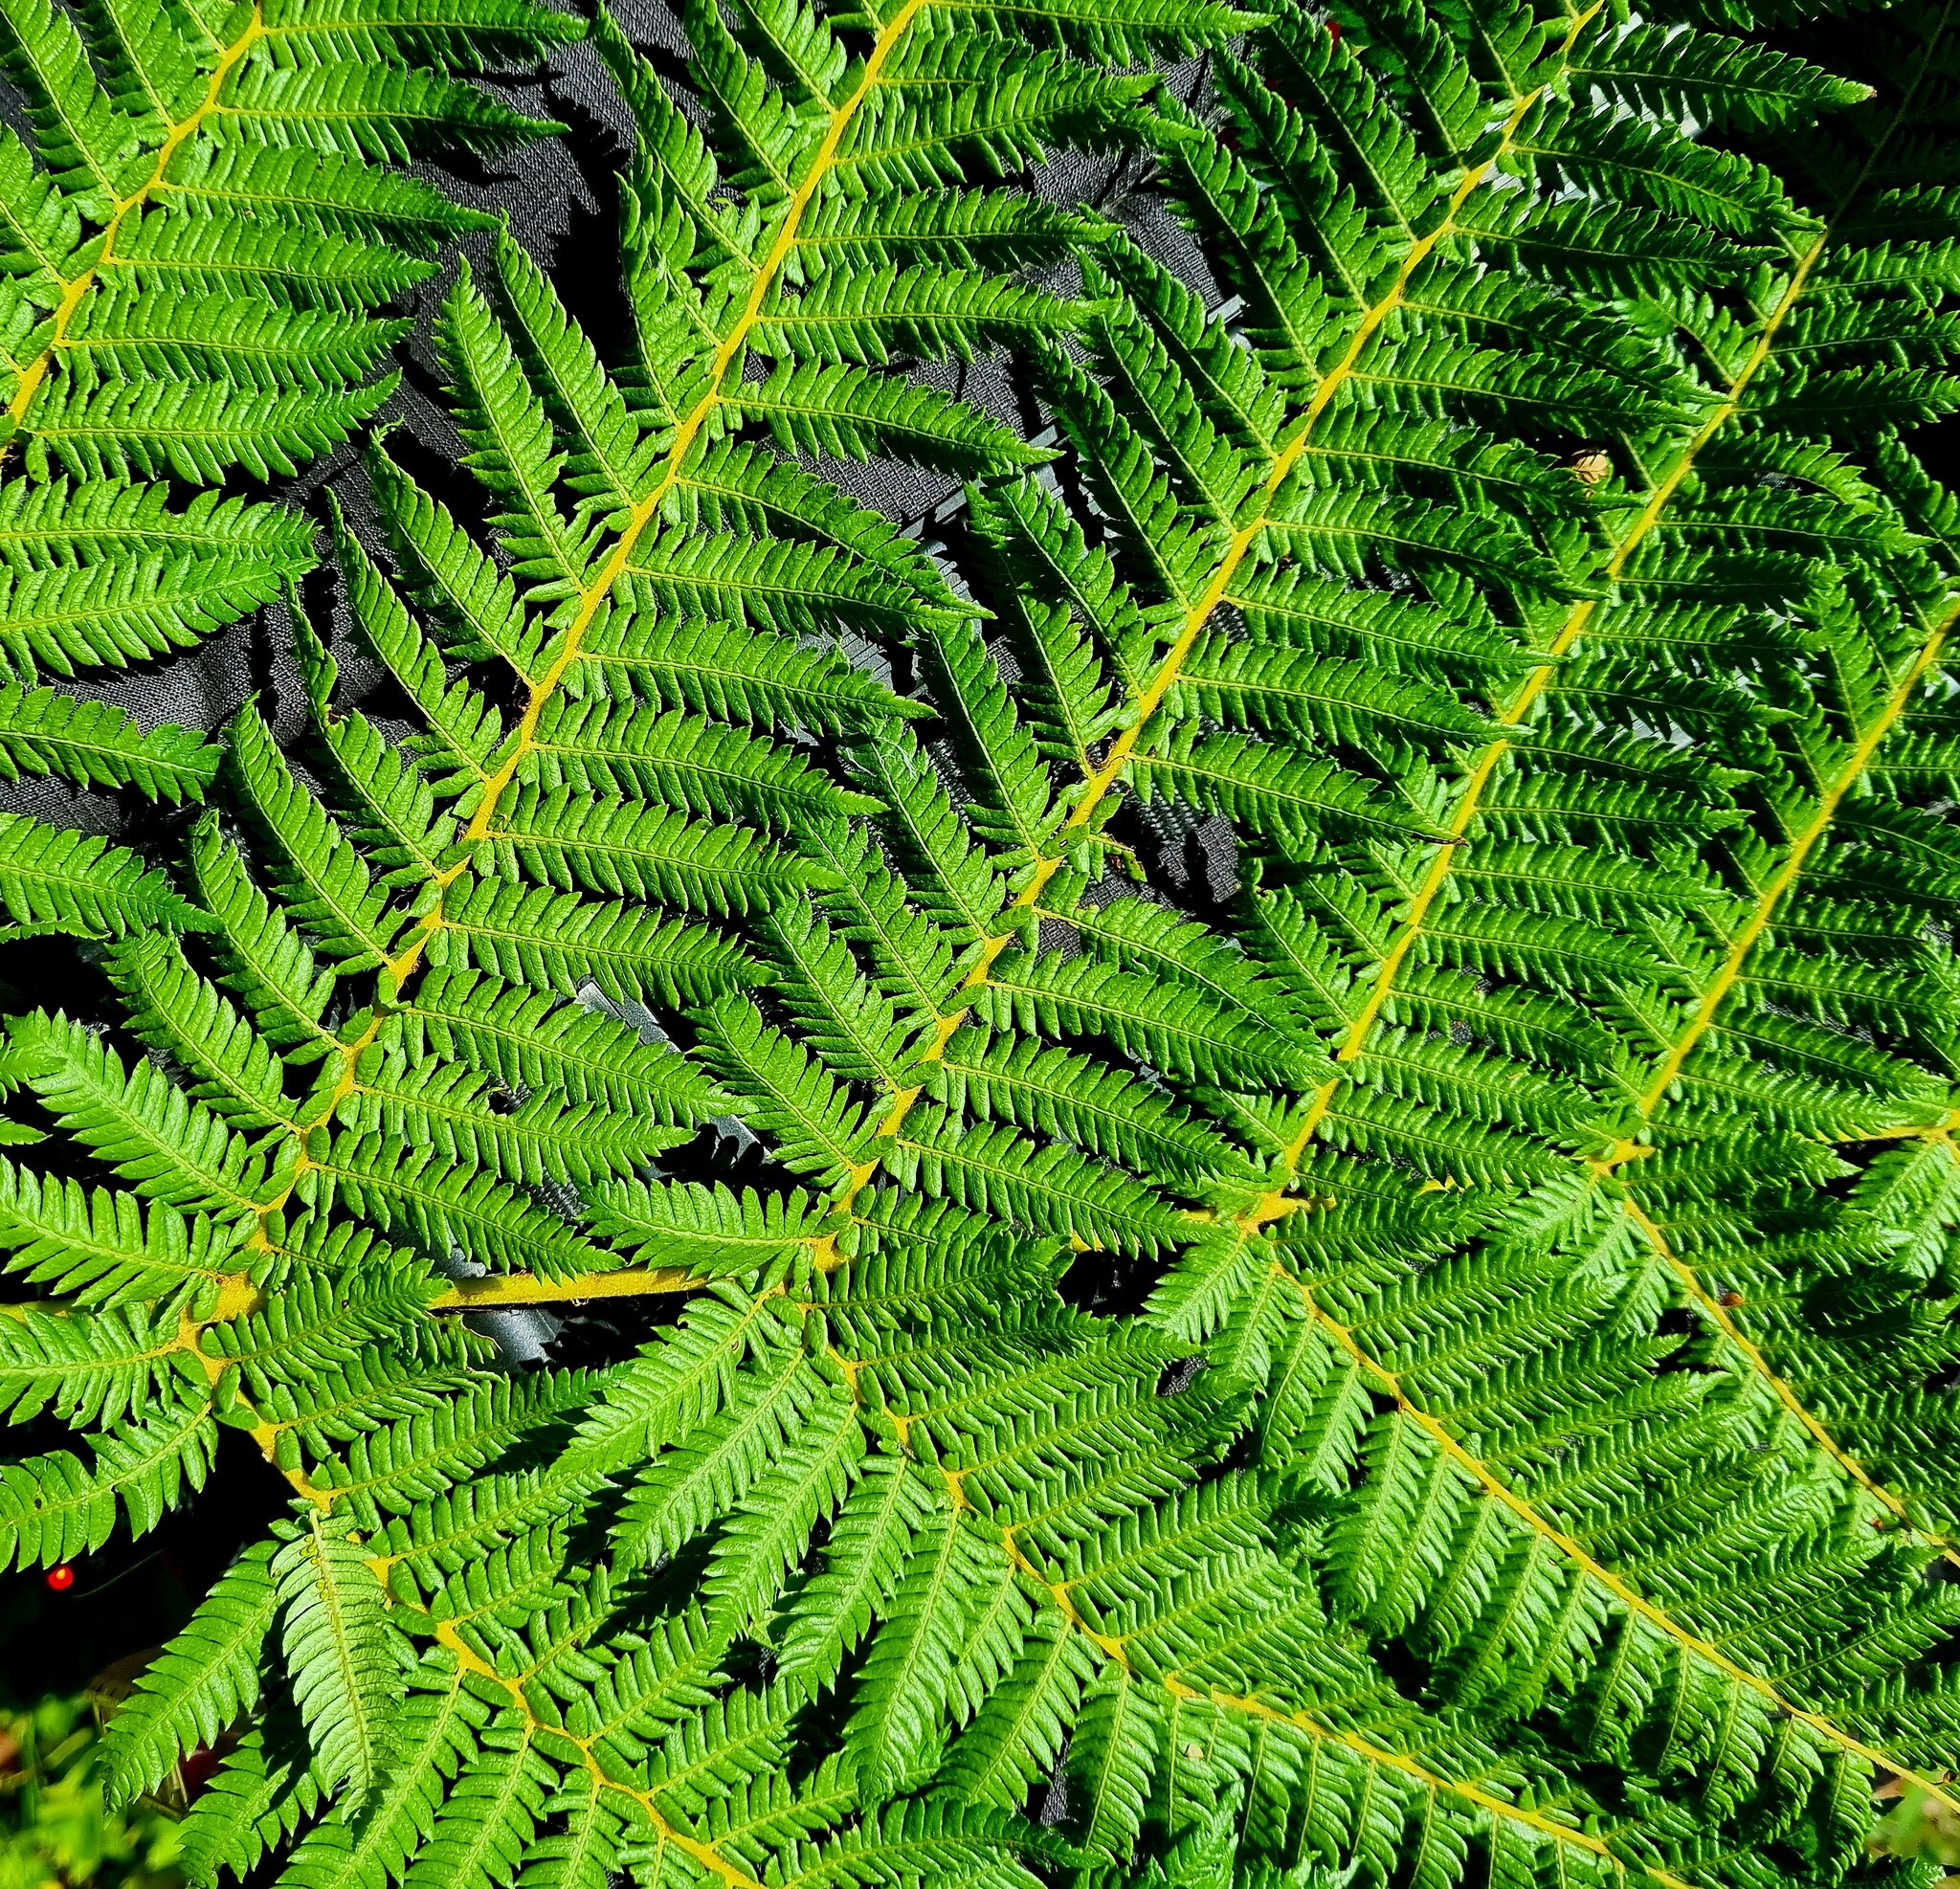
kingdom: Plantae
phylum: Tracheophyta
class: Polypodiopsida
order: Cyatheales
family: Cyatheaceae
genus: Alsophila
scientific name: Alsophila smithii
